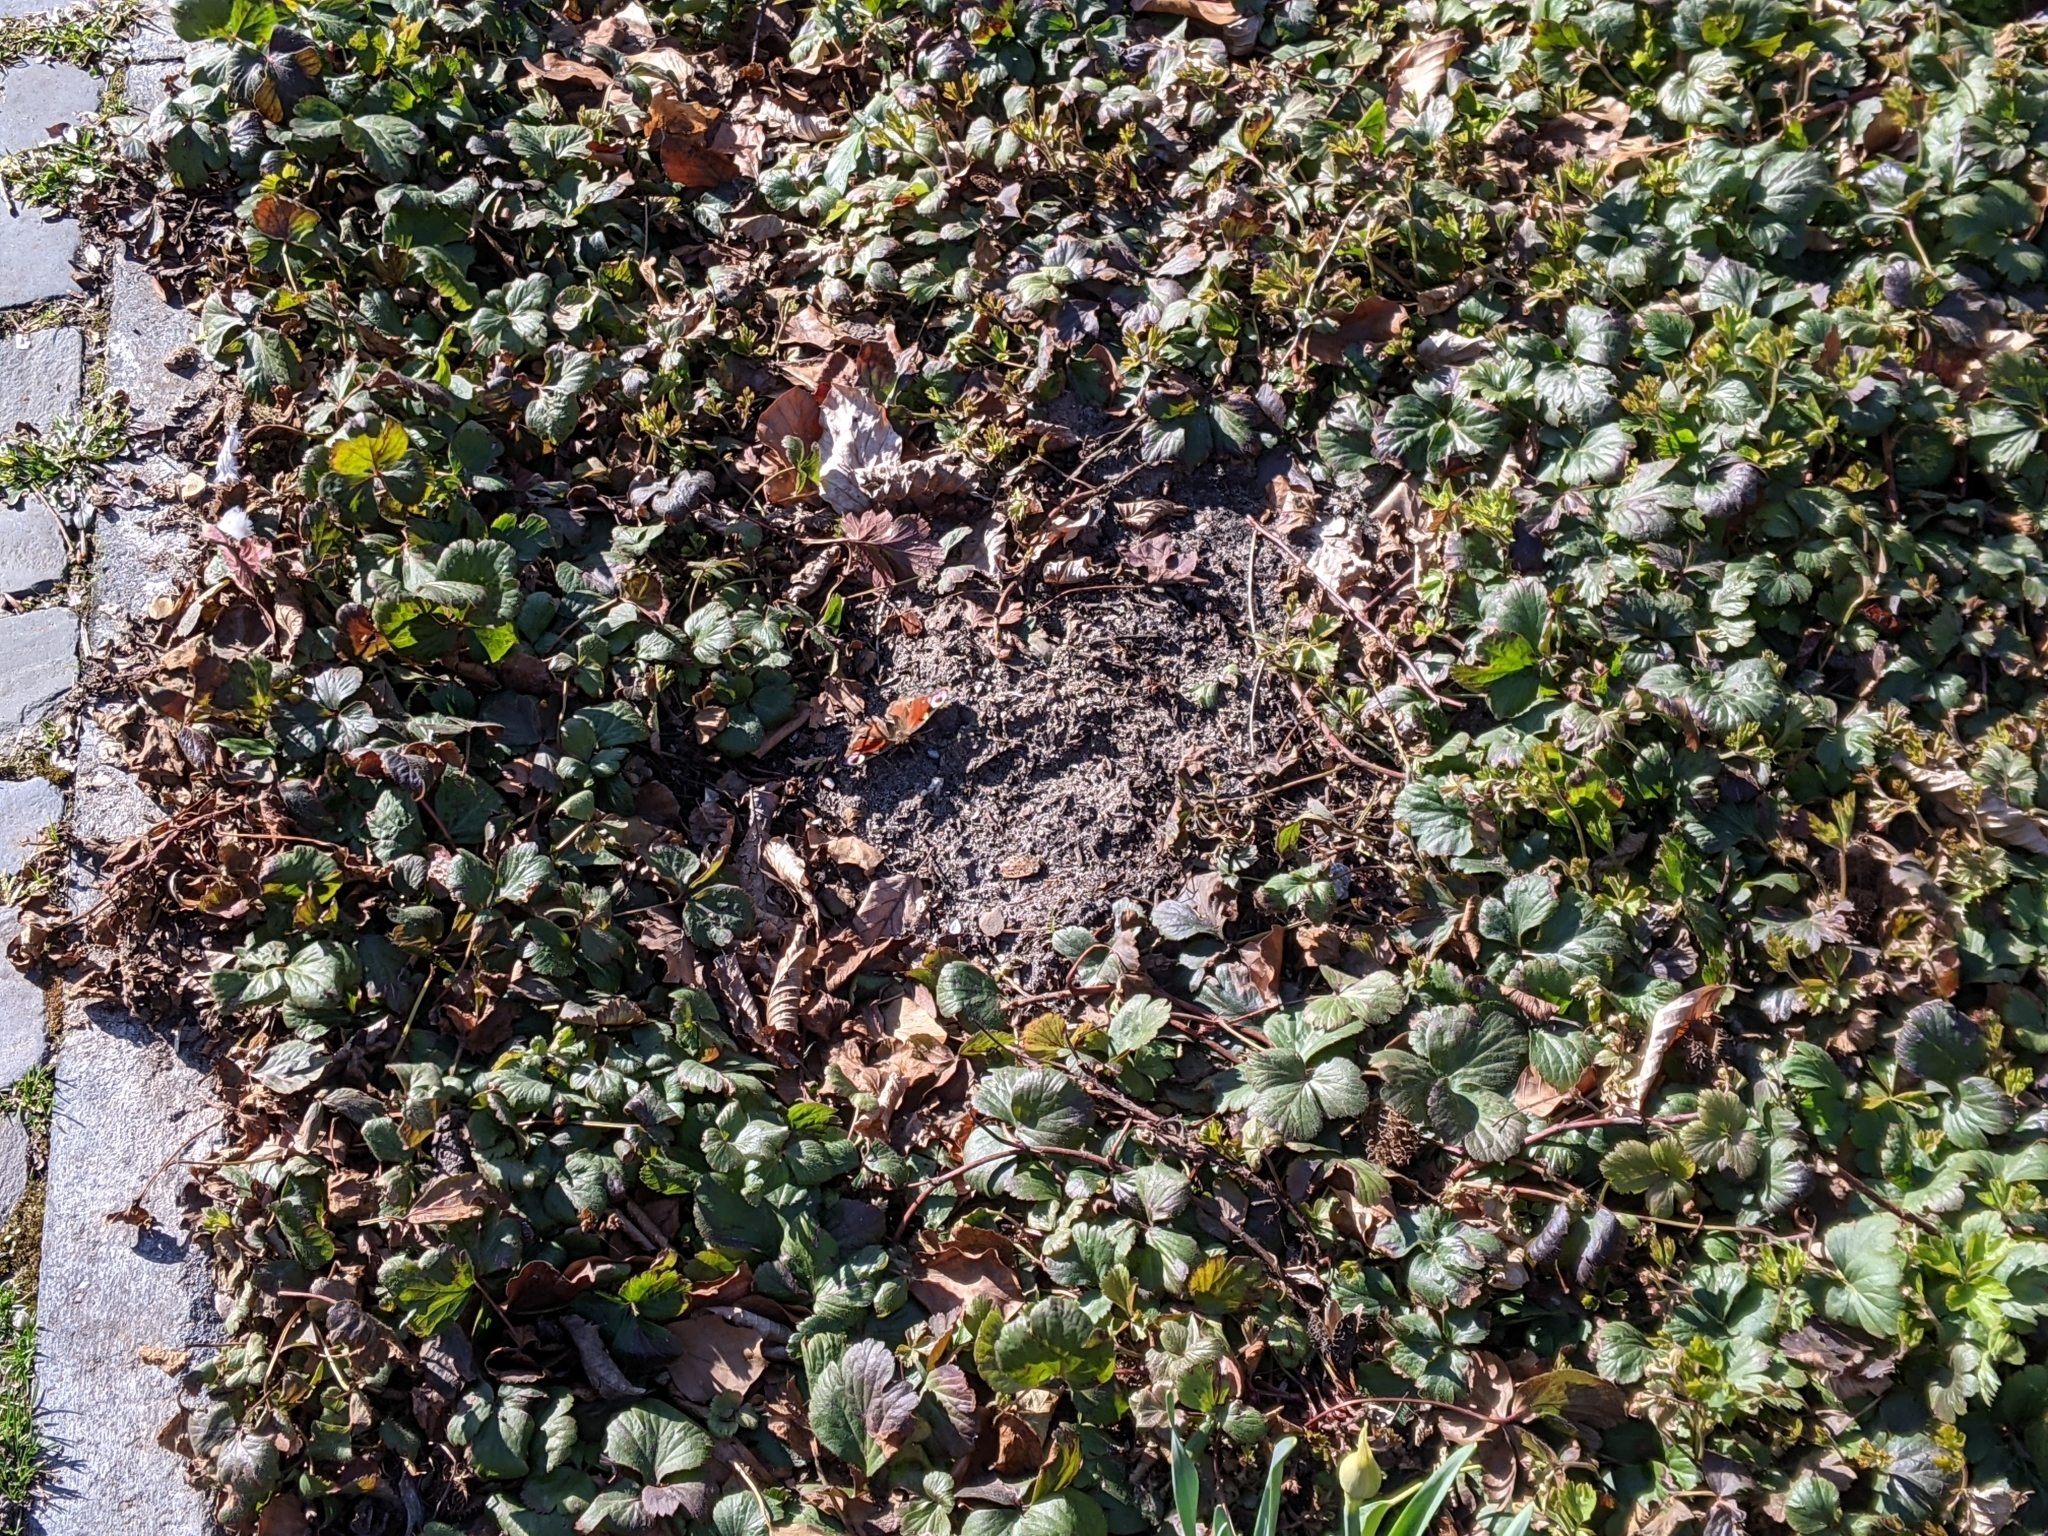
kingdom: Animalia
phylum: Arthropoda
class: Insecta
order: Lepidoptera
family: Nymphalidae
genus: Aglais
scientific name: Aglais io
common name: Peacock
